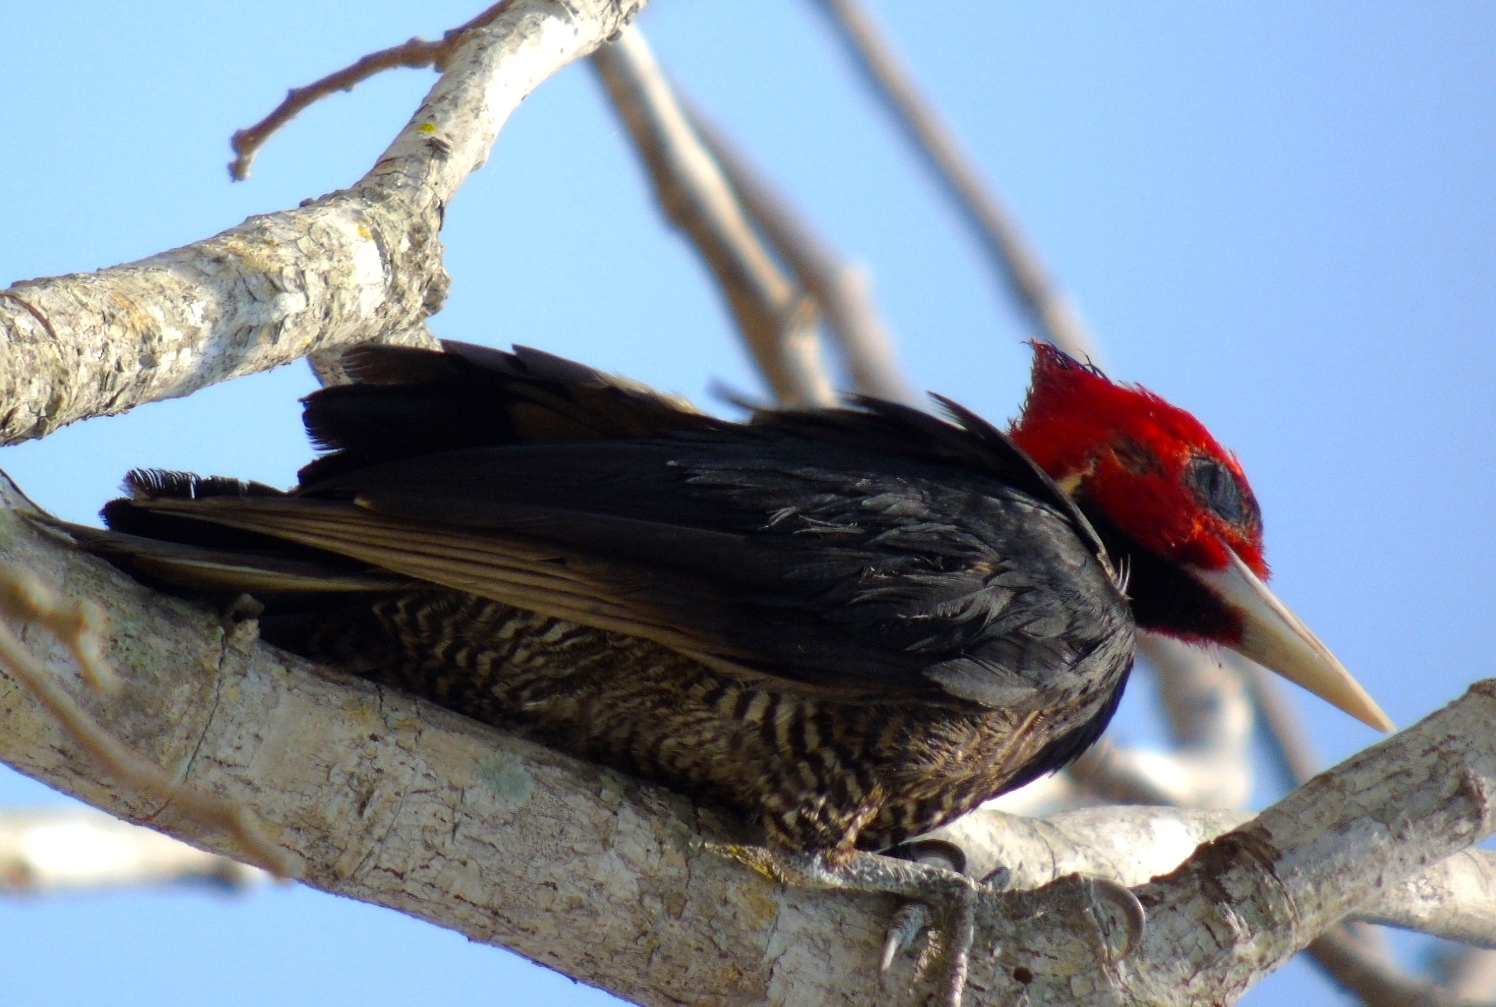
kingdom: Animalia
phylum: Chordata
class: Aves
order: Piciformes
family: Picidae
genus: Campephilus
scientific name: Campephilus guatemalensis
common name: Pale-billed woodpecker
